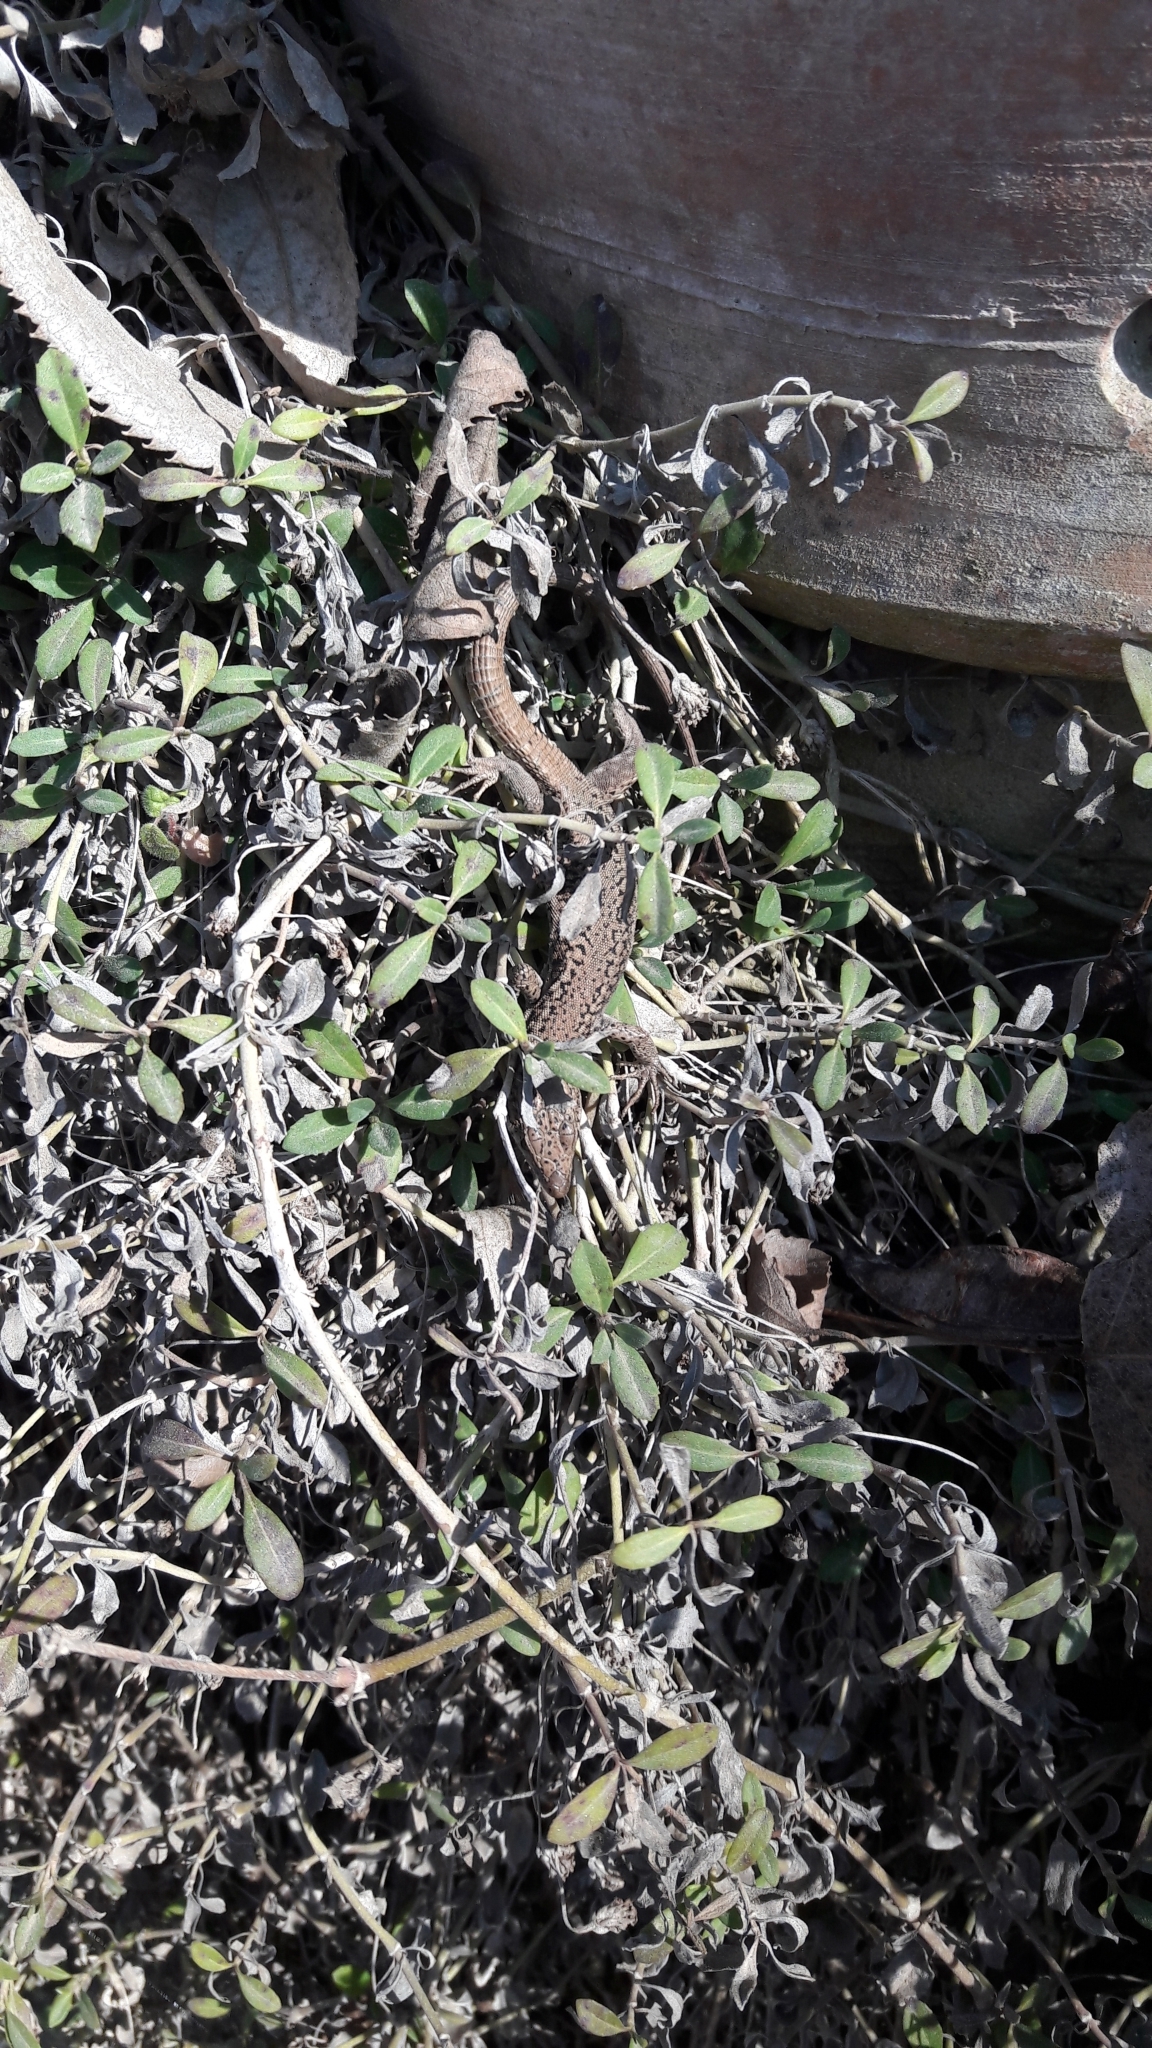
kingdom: Animalia
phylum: Chordata
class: Squamata
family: Lacertidae
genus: Podarcis
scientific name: Podarcis vaucheri
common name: Vaucher's wall lizard
